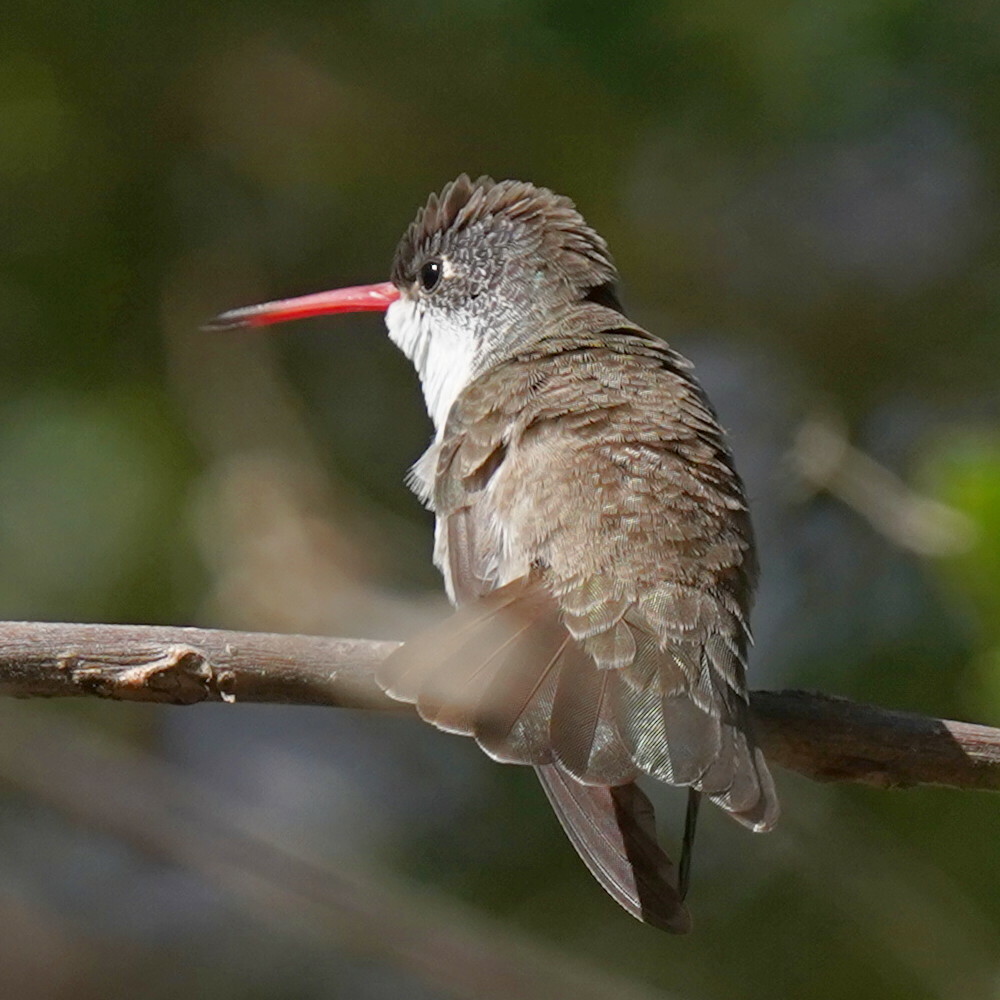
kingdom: Animalia
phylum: Chordata
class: Aves
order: Apodiformes
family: Trochilidae
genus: Leucolia
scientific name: Leucolia violiceps
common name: Violet-crowned hummingbird
